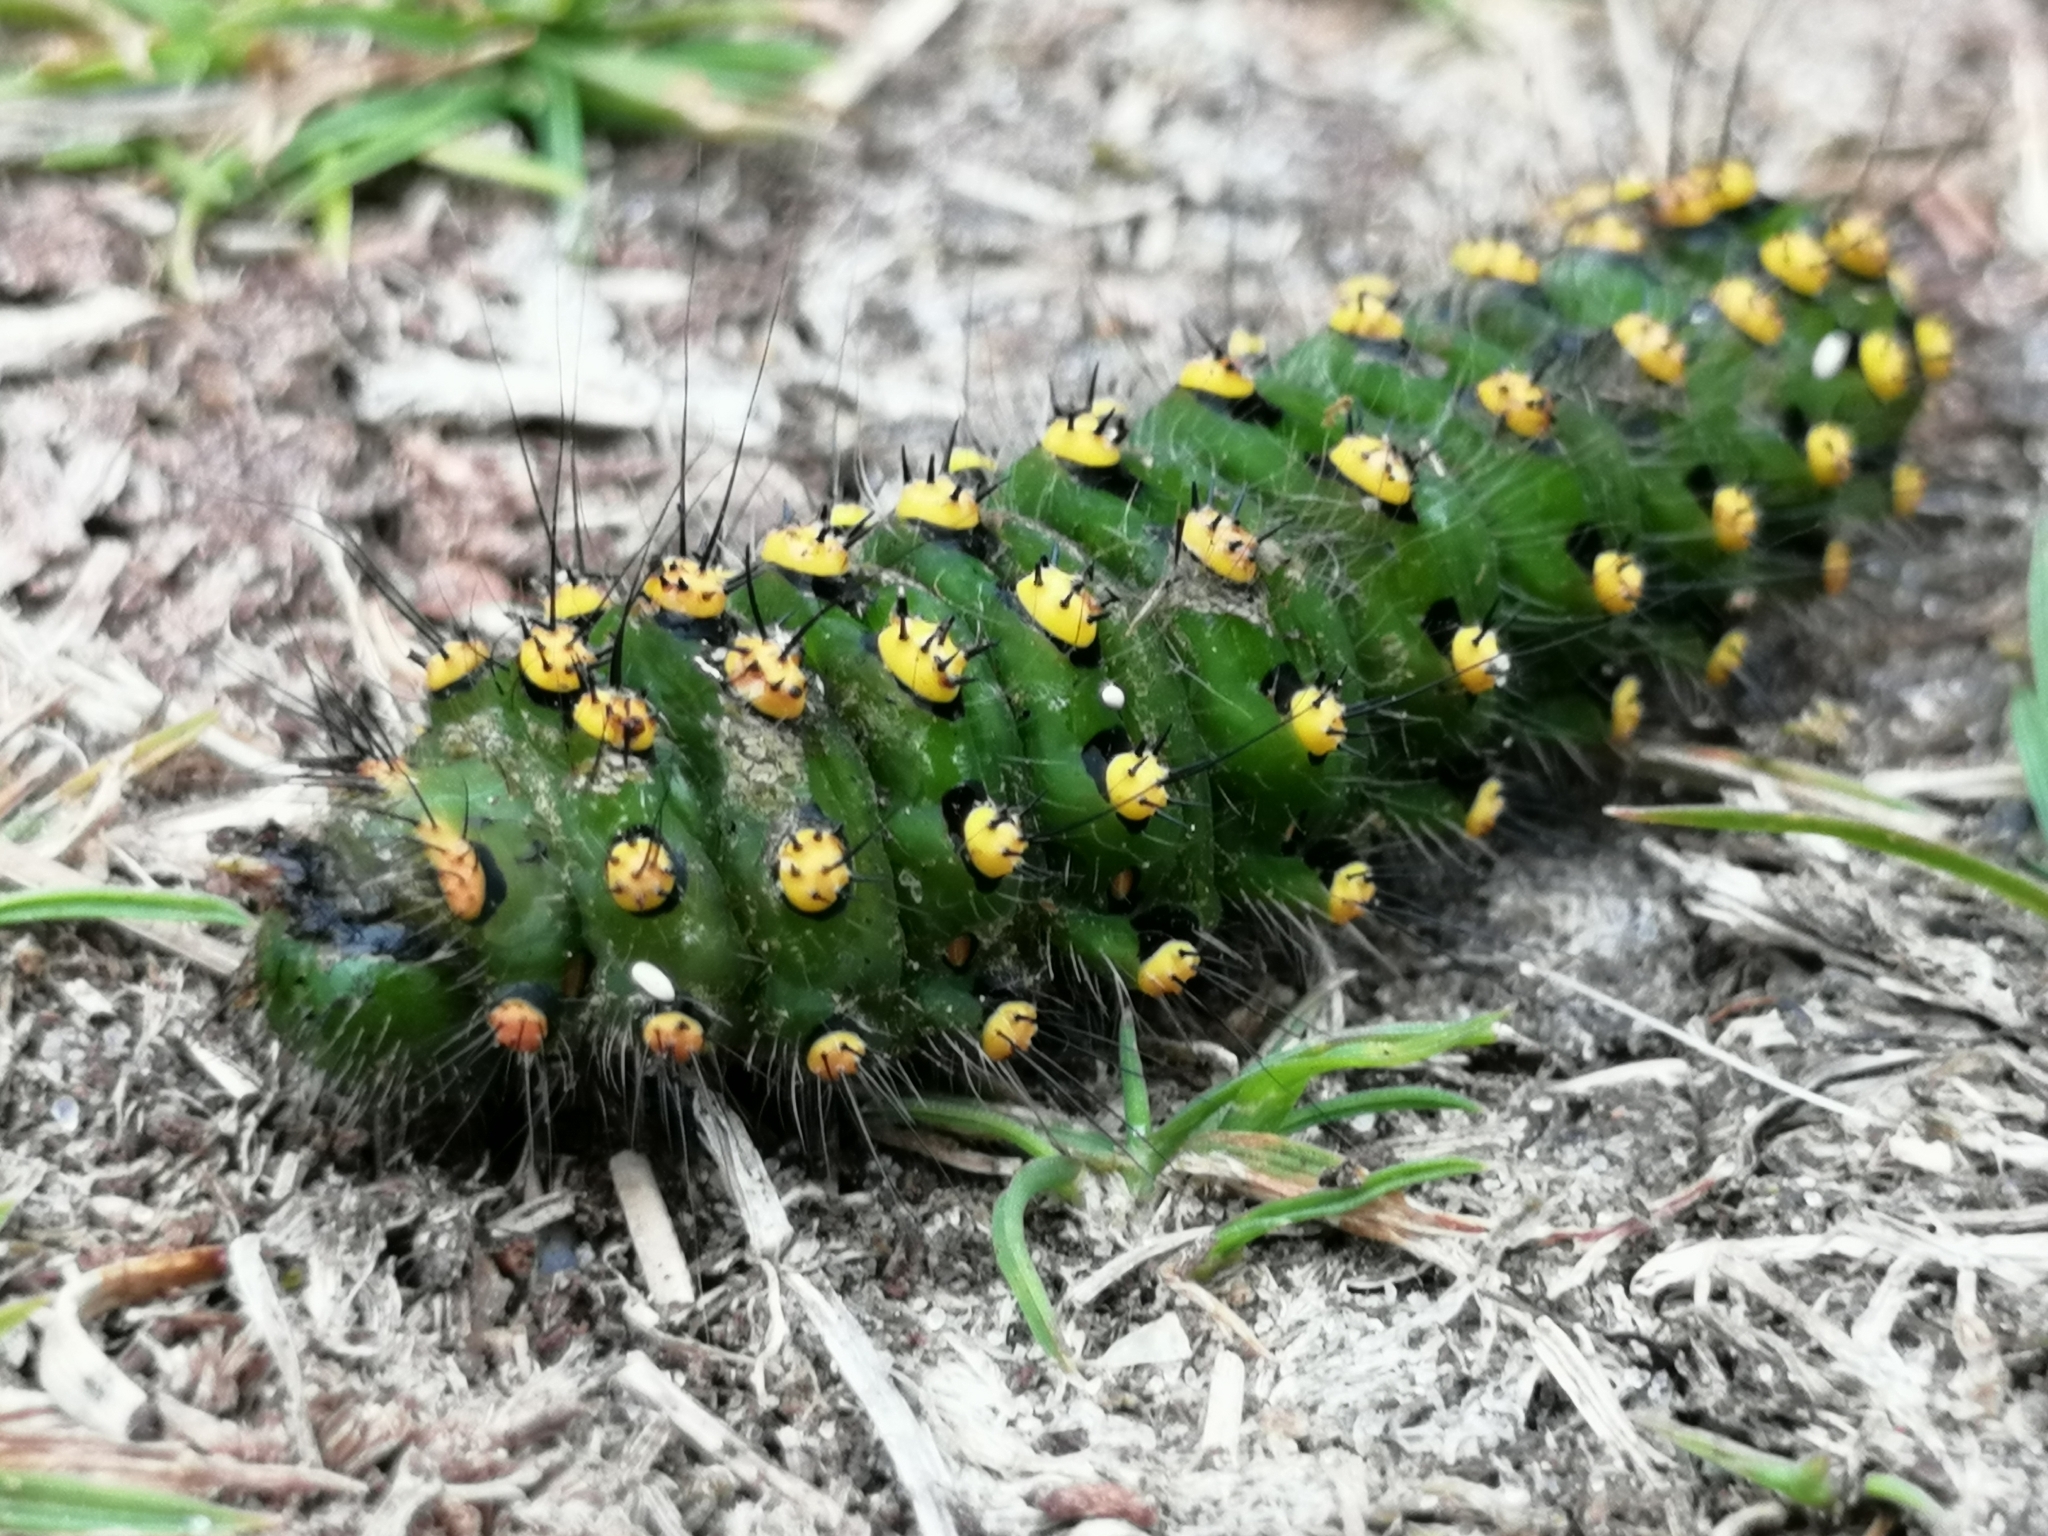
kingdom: Animalia
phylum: Arthropoda
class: Insecta
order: Lepidoptera
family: Saturniidae
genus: Saturnia
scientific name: Saturnia pavonia
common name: Emperor moth
